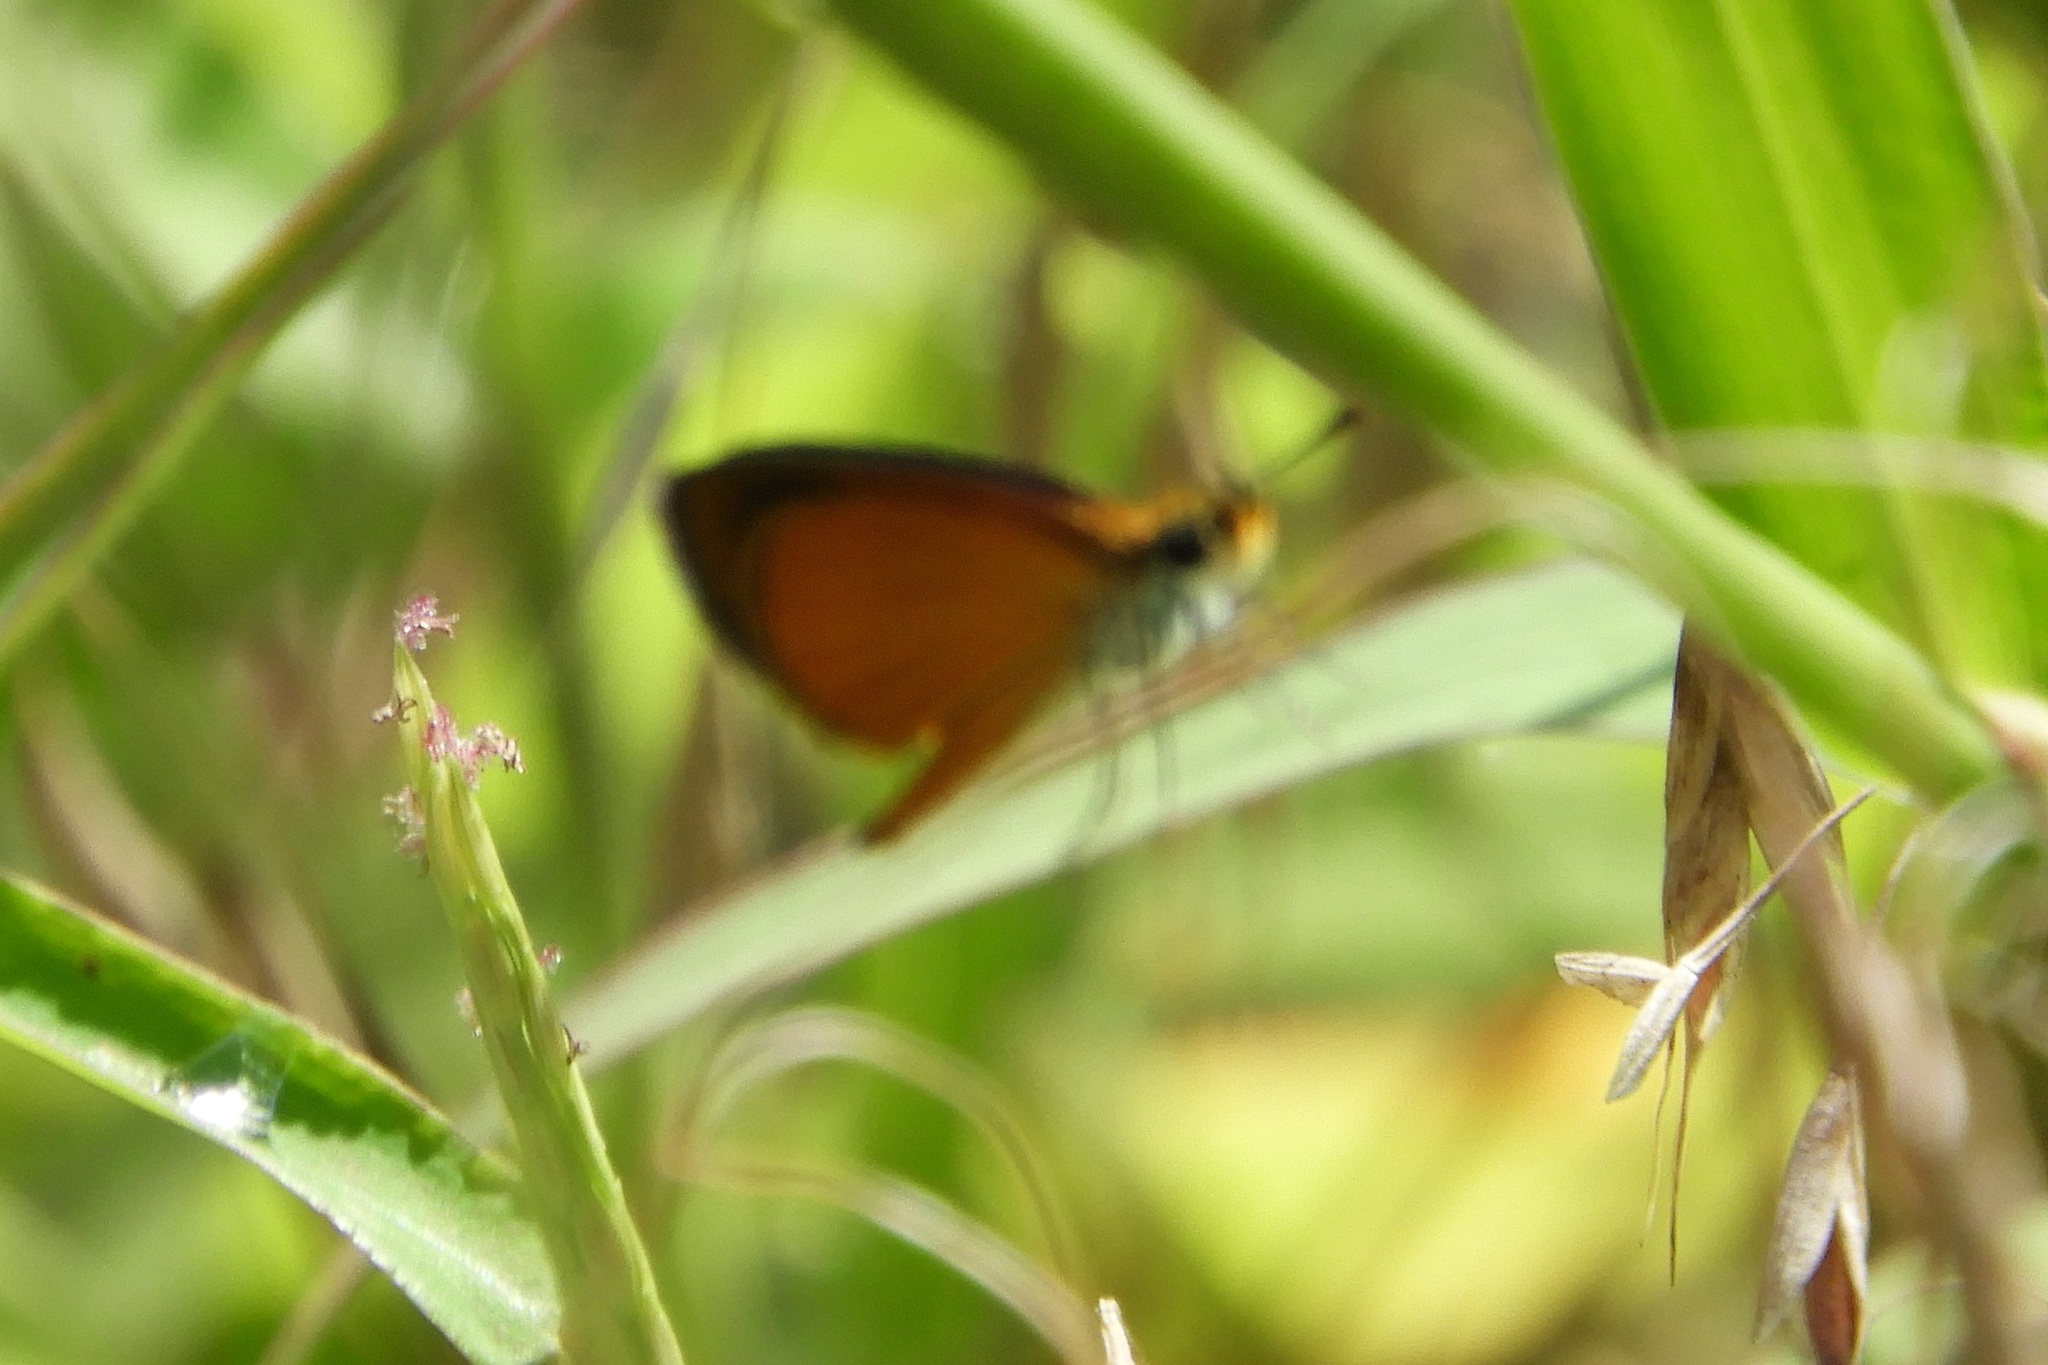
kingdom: Animalia
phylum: Arthropoda
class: Insecta
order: Lepidoptera
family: Hesperiidae
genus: Ancyloxypha
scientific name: Ancyloxypha numitor
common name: Least skipper
